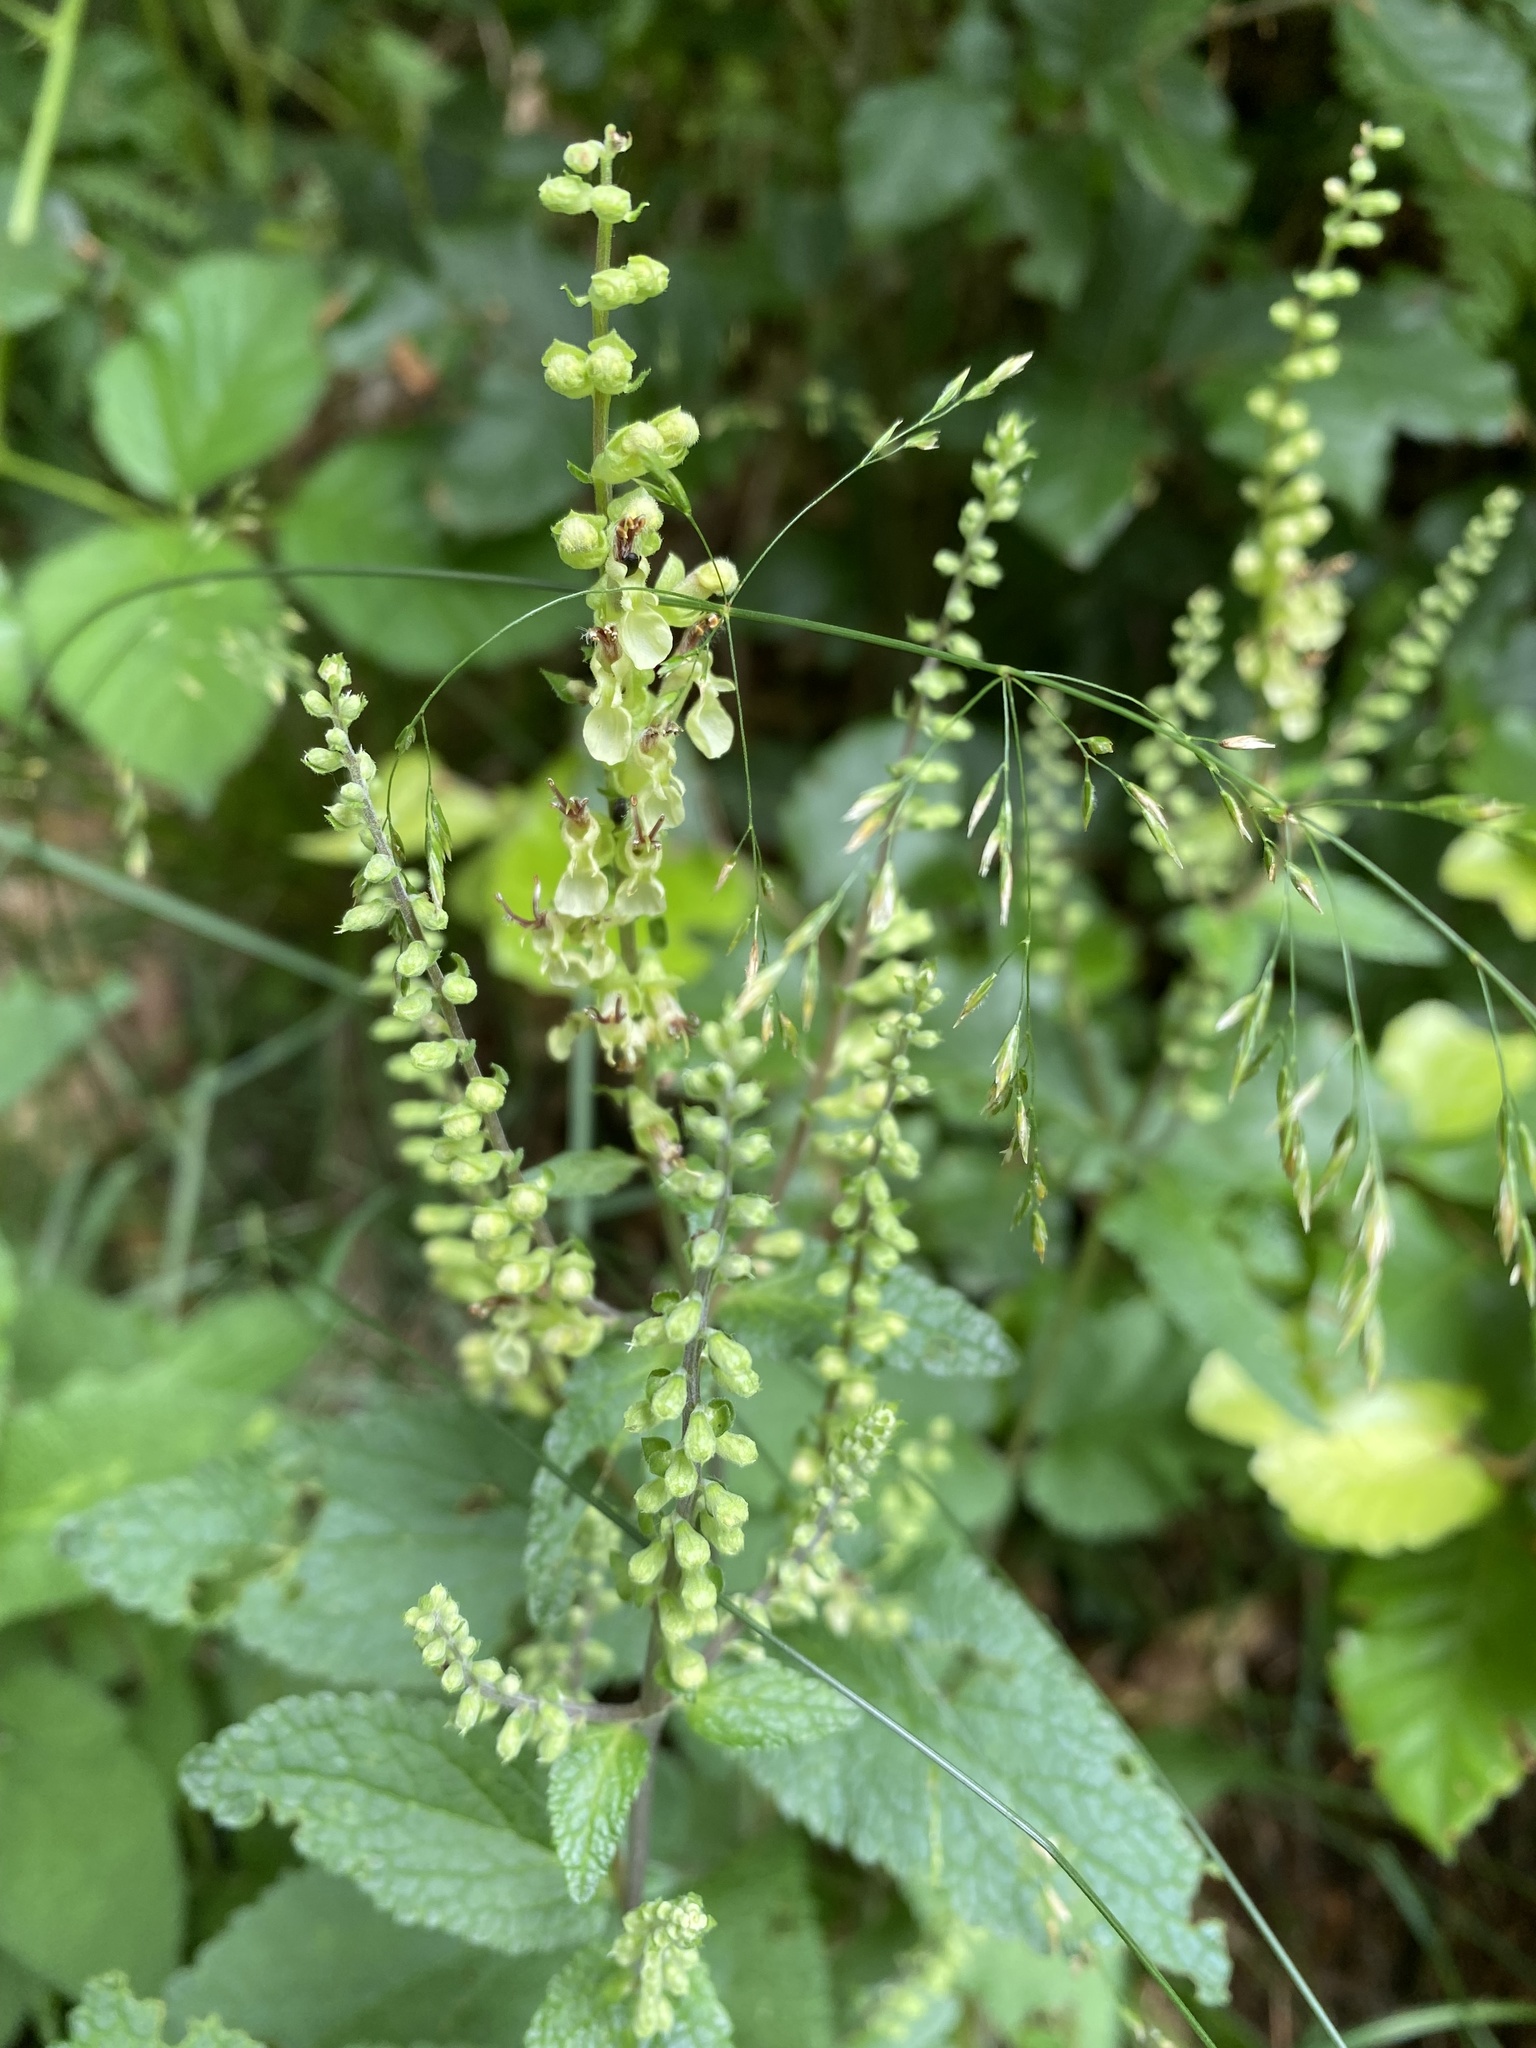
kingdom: Plantae
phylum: Tracheophyta
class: Magnoliopsida
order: Lamiales
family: Lamiaceae
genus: Teucrium
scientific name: Teucrium scorodonia
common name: Woodland germander
